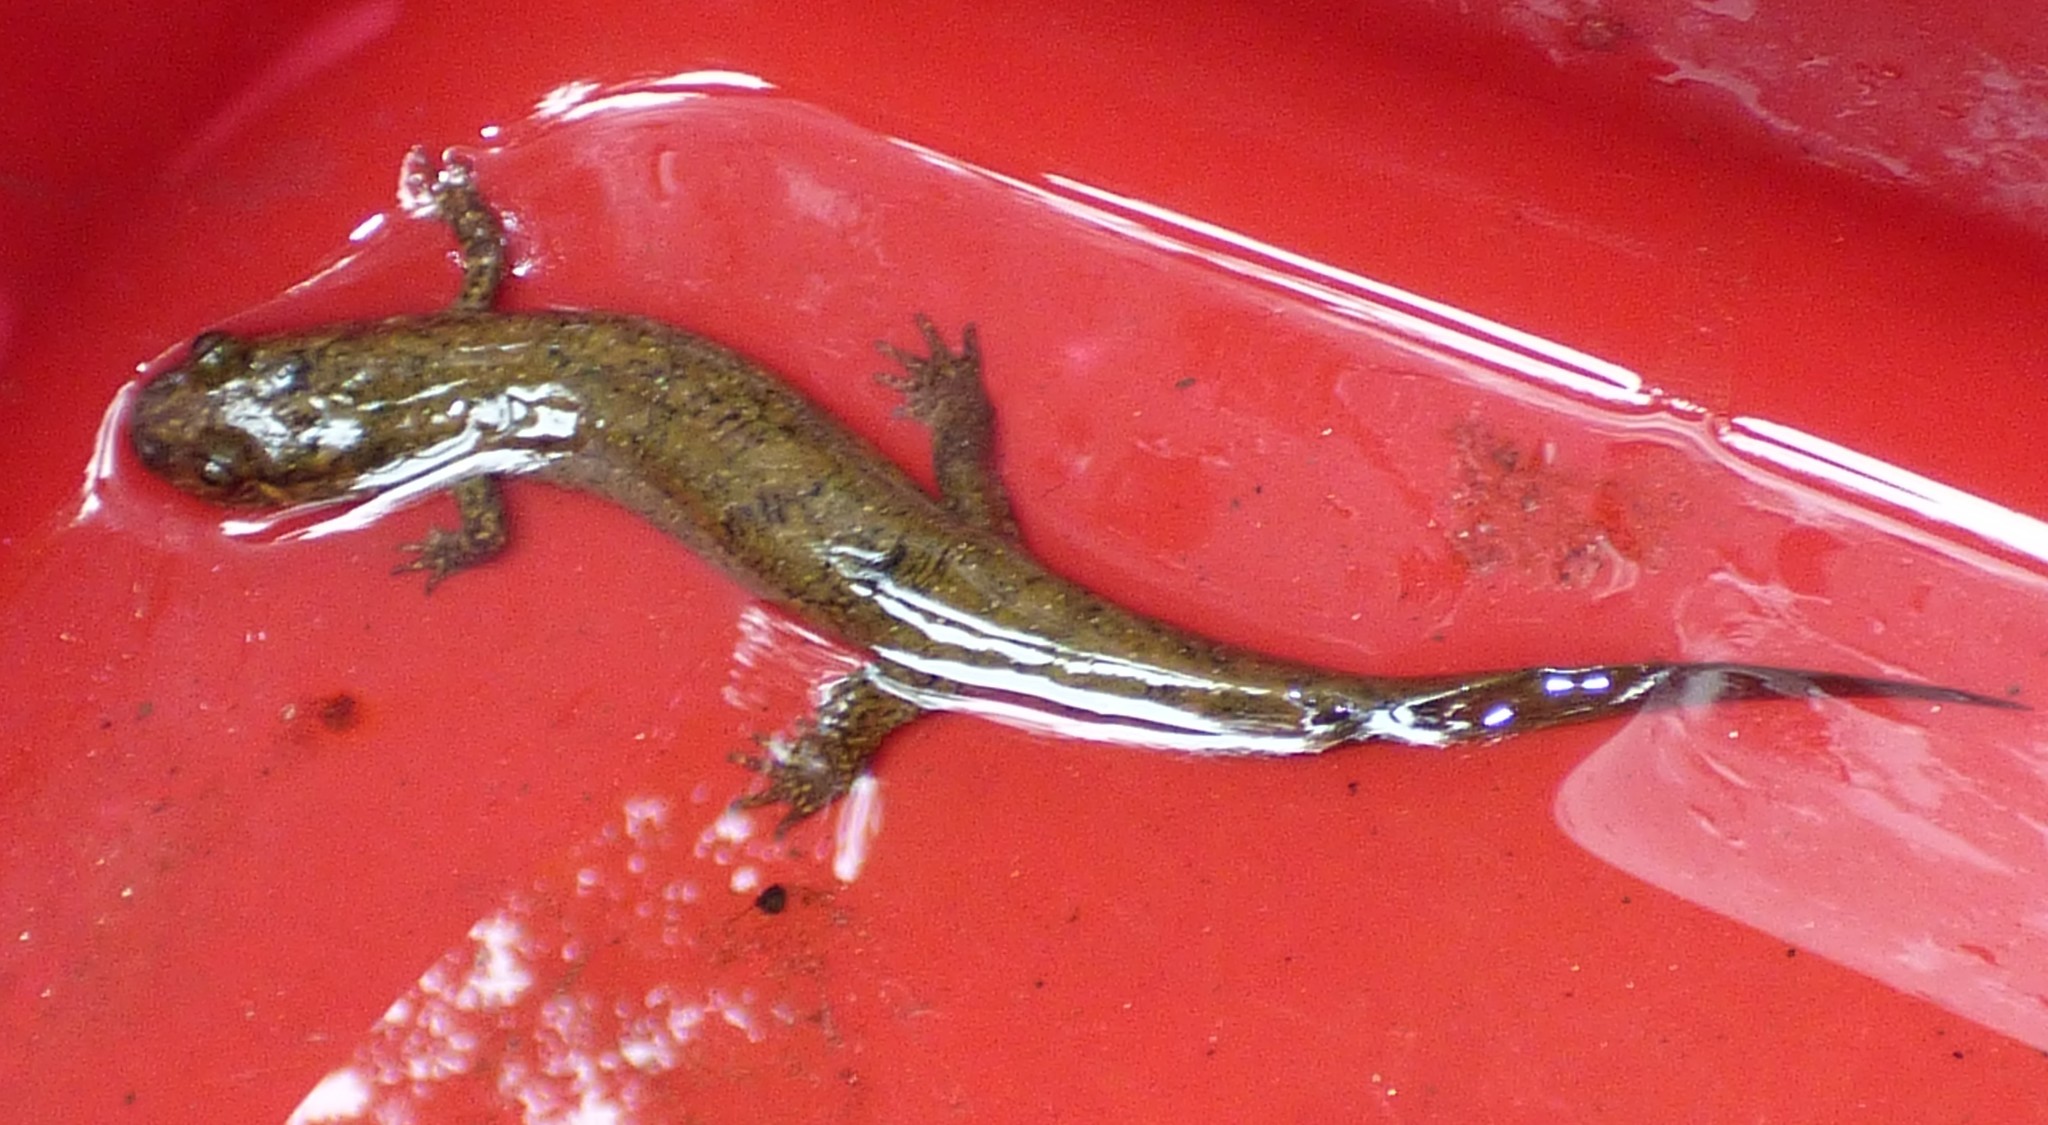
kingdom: Animalia
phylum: Chordata
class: Amphibia
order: Caudata
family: Plethodontidae
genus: Desmognathus
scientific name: Desmognathus
